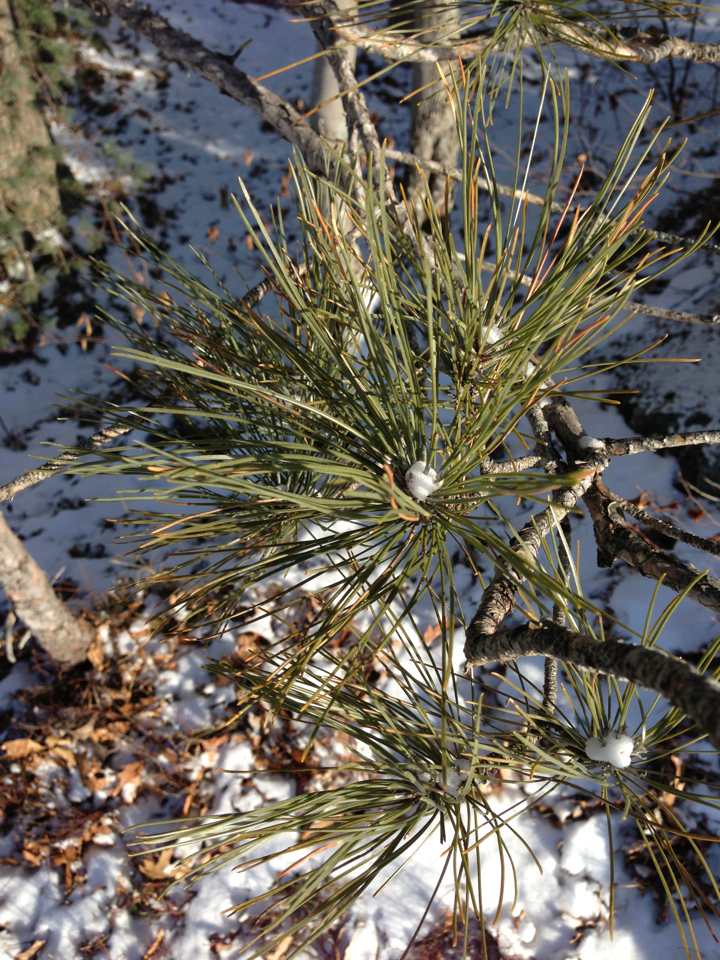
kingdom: Plantae
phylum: Tracheophyta
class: Pinopsida
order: Pinales
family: Pinaceae
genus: Pinus
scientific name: Pinus resinosa
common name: Norway pine
